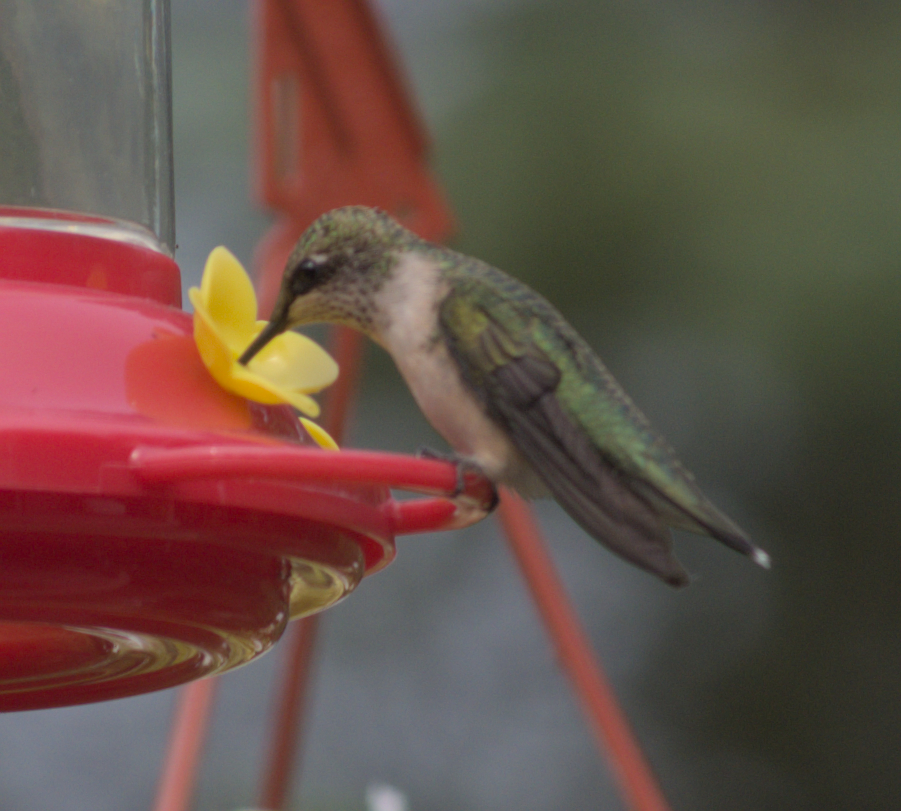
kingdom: Animalia
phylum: Chordata
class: Aves
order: Apodiformes
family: Trochilidae
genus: Archilochus
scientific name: Archilochus colubris
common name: Ruby-throated hummingbird
